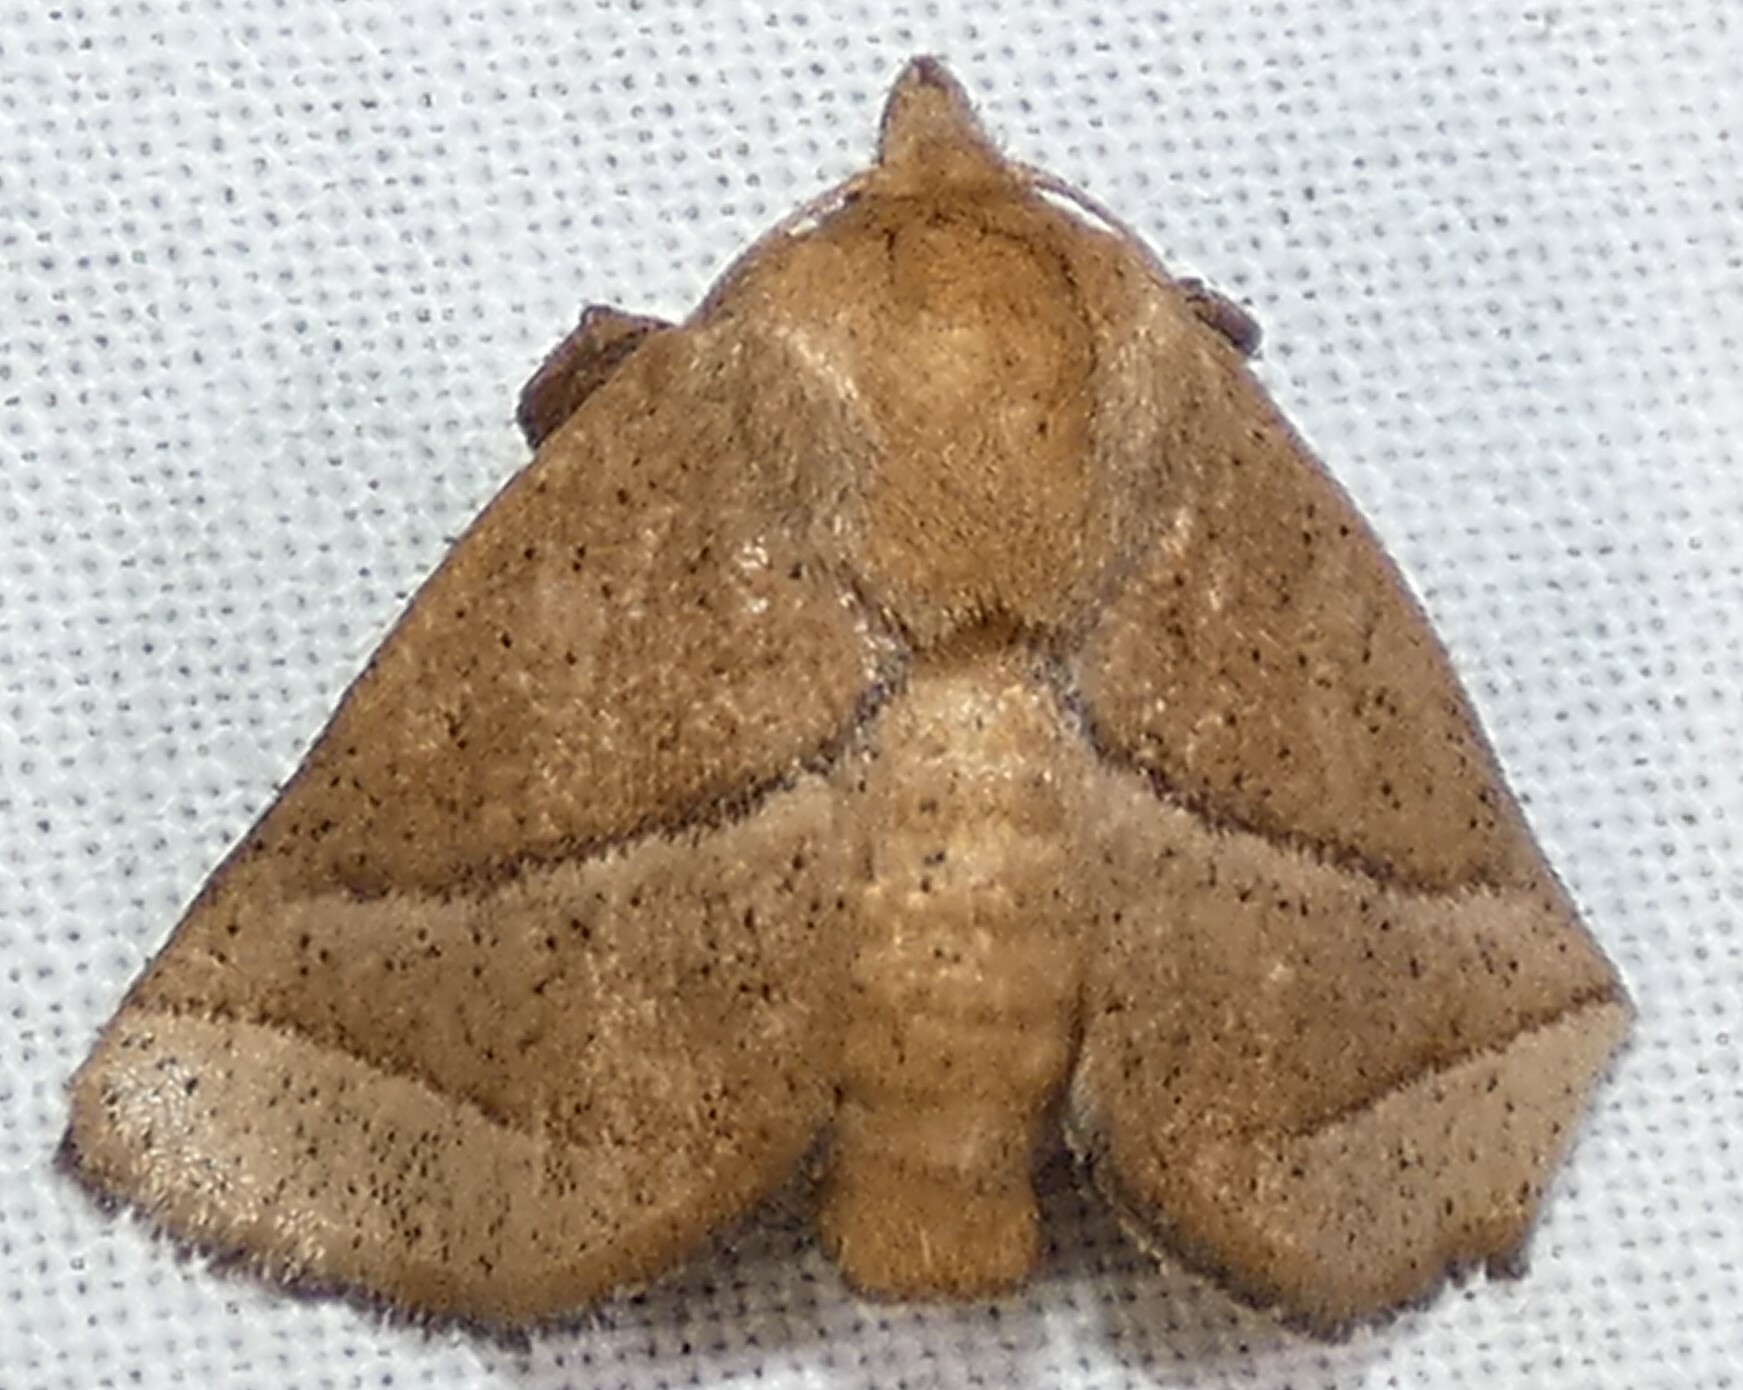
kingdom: Animalia
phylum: Arthropoda
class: Insecta
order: Lepidoptera
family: Limacodidae
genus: Natada
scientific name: Natada nasoni
